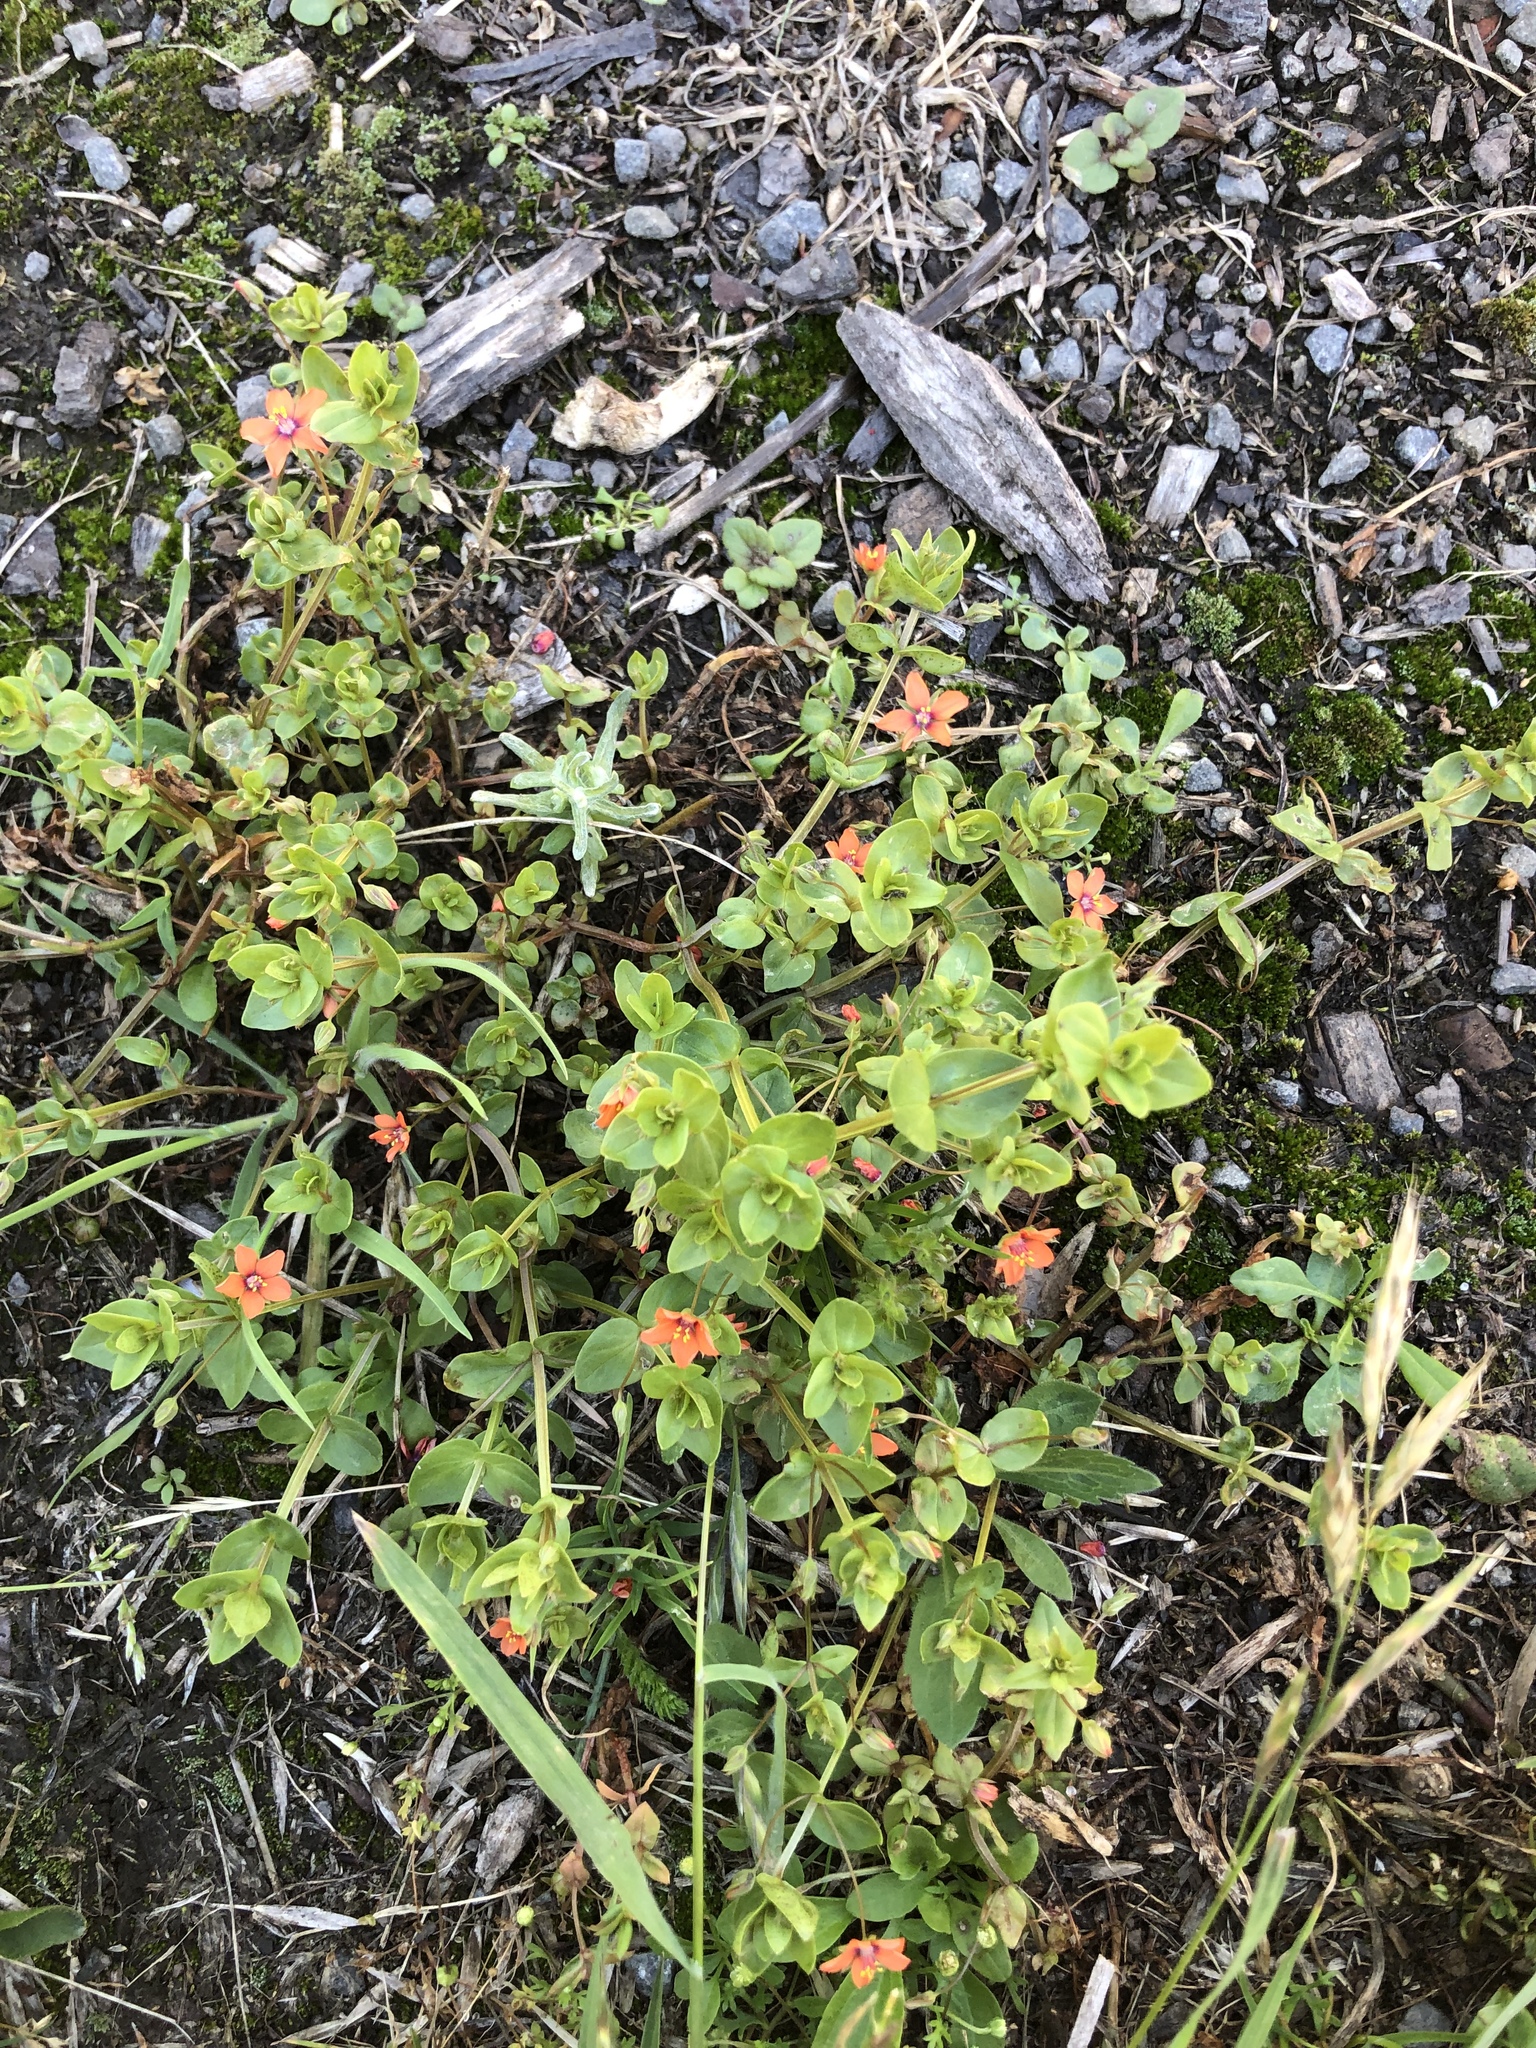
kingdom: Plantae
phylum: Tracheophyta
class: Magnoliopsida
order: Ericales
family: Primulaceae
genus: Lysimachia
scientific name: Lysimachia arvensis
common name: Scarlet pimpernel
